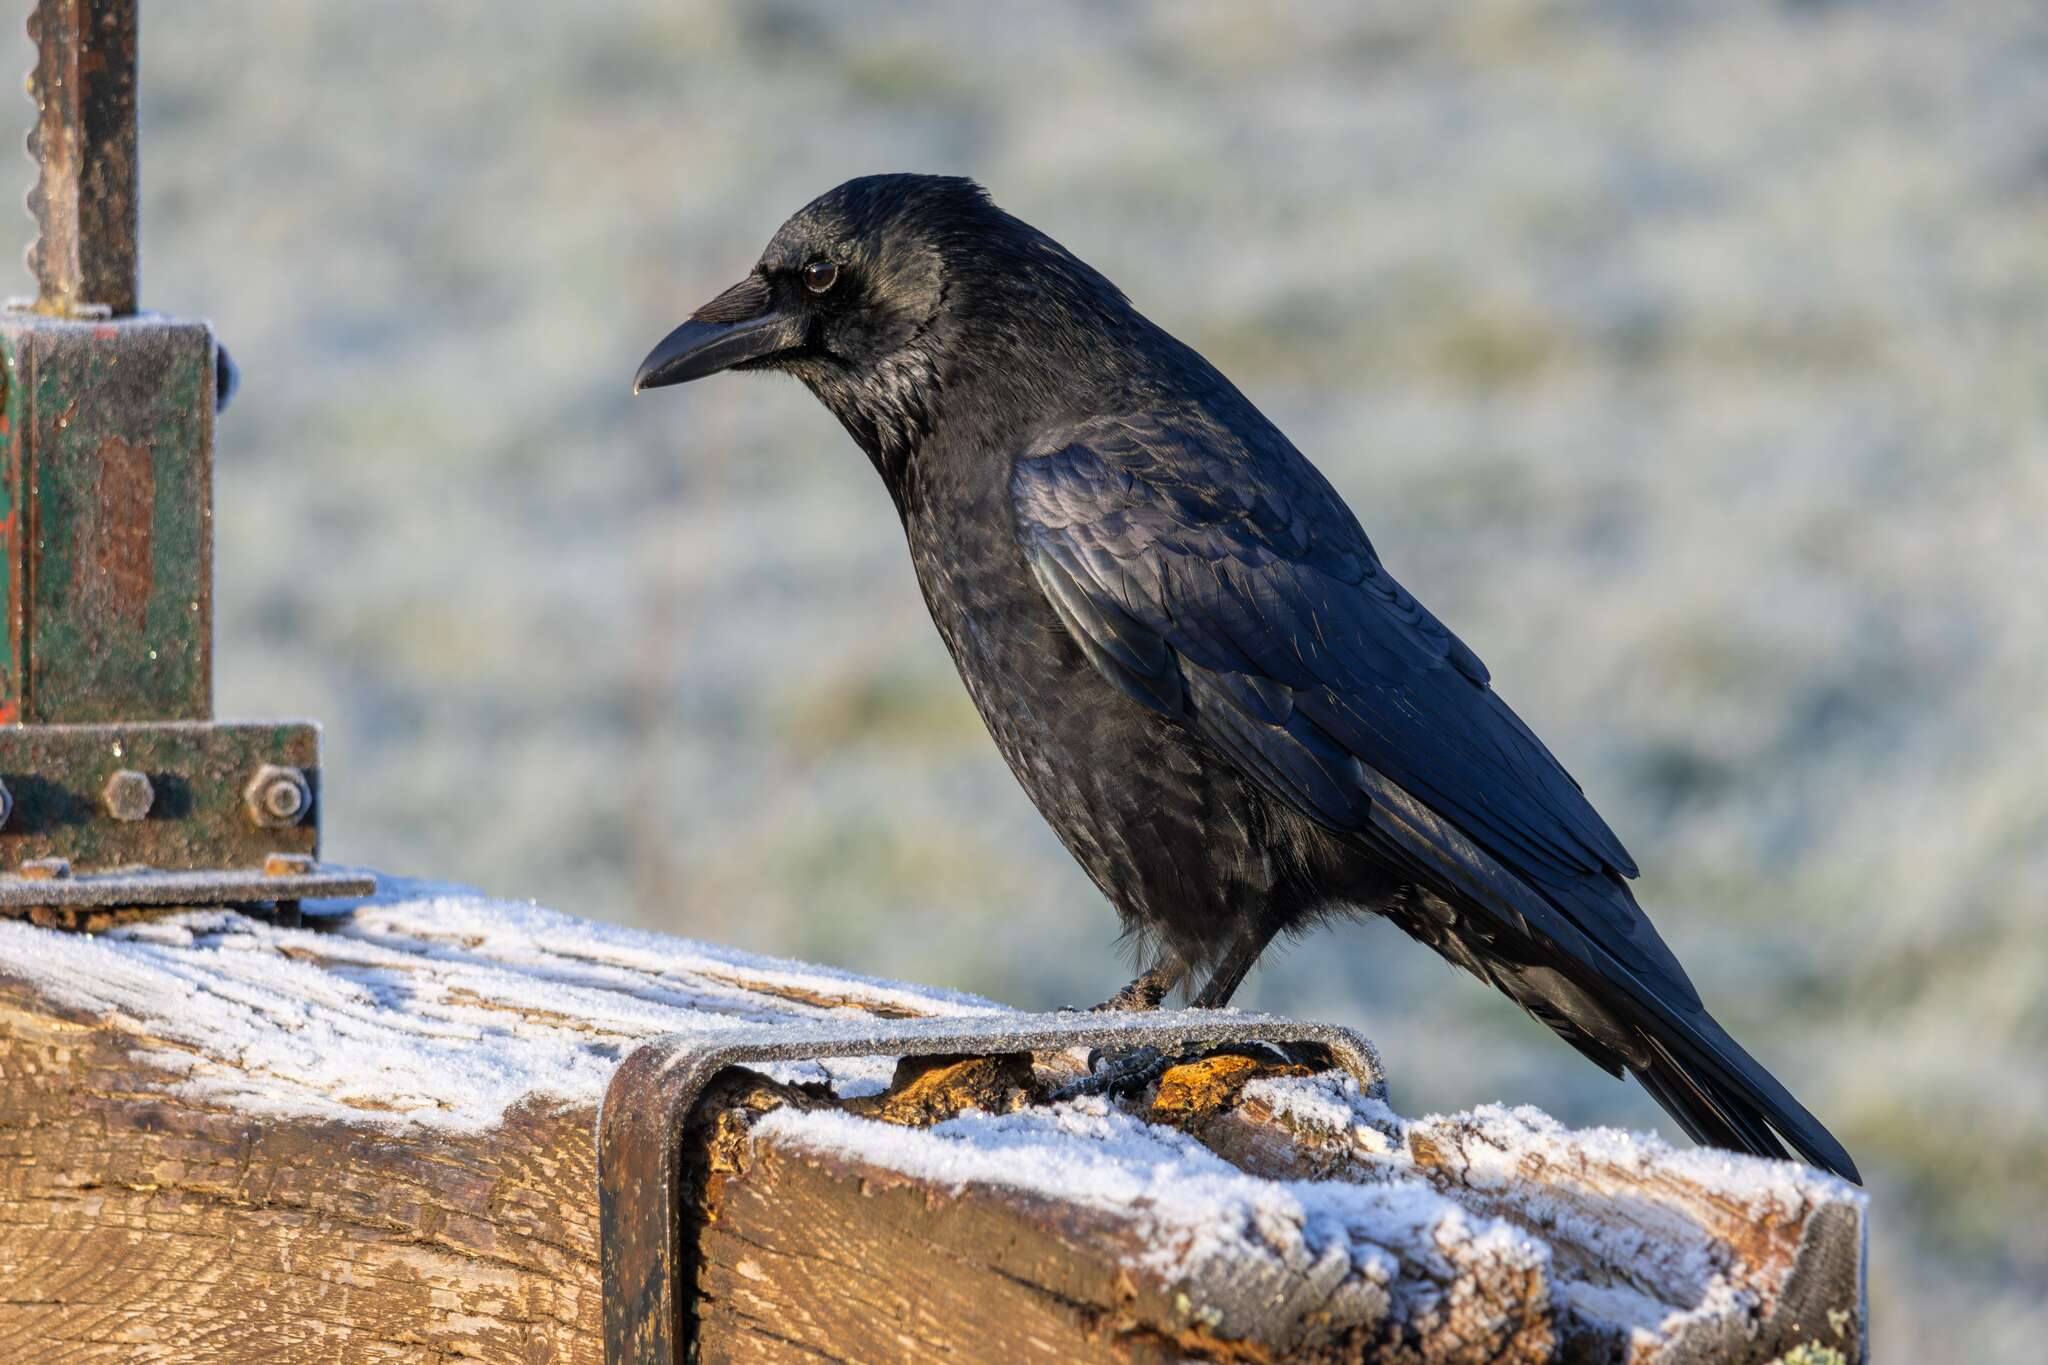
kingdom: Animalia
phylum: Chordata
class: Aves
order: Passeriformes
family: Corvidae
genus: Corvus
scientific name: Corvus corone
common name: Carrion crow
